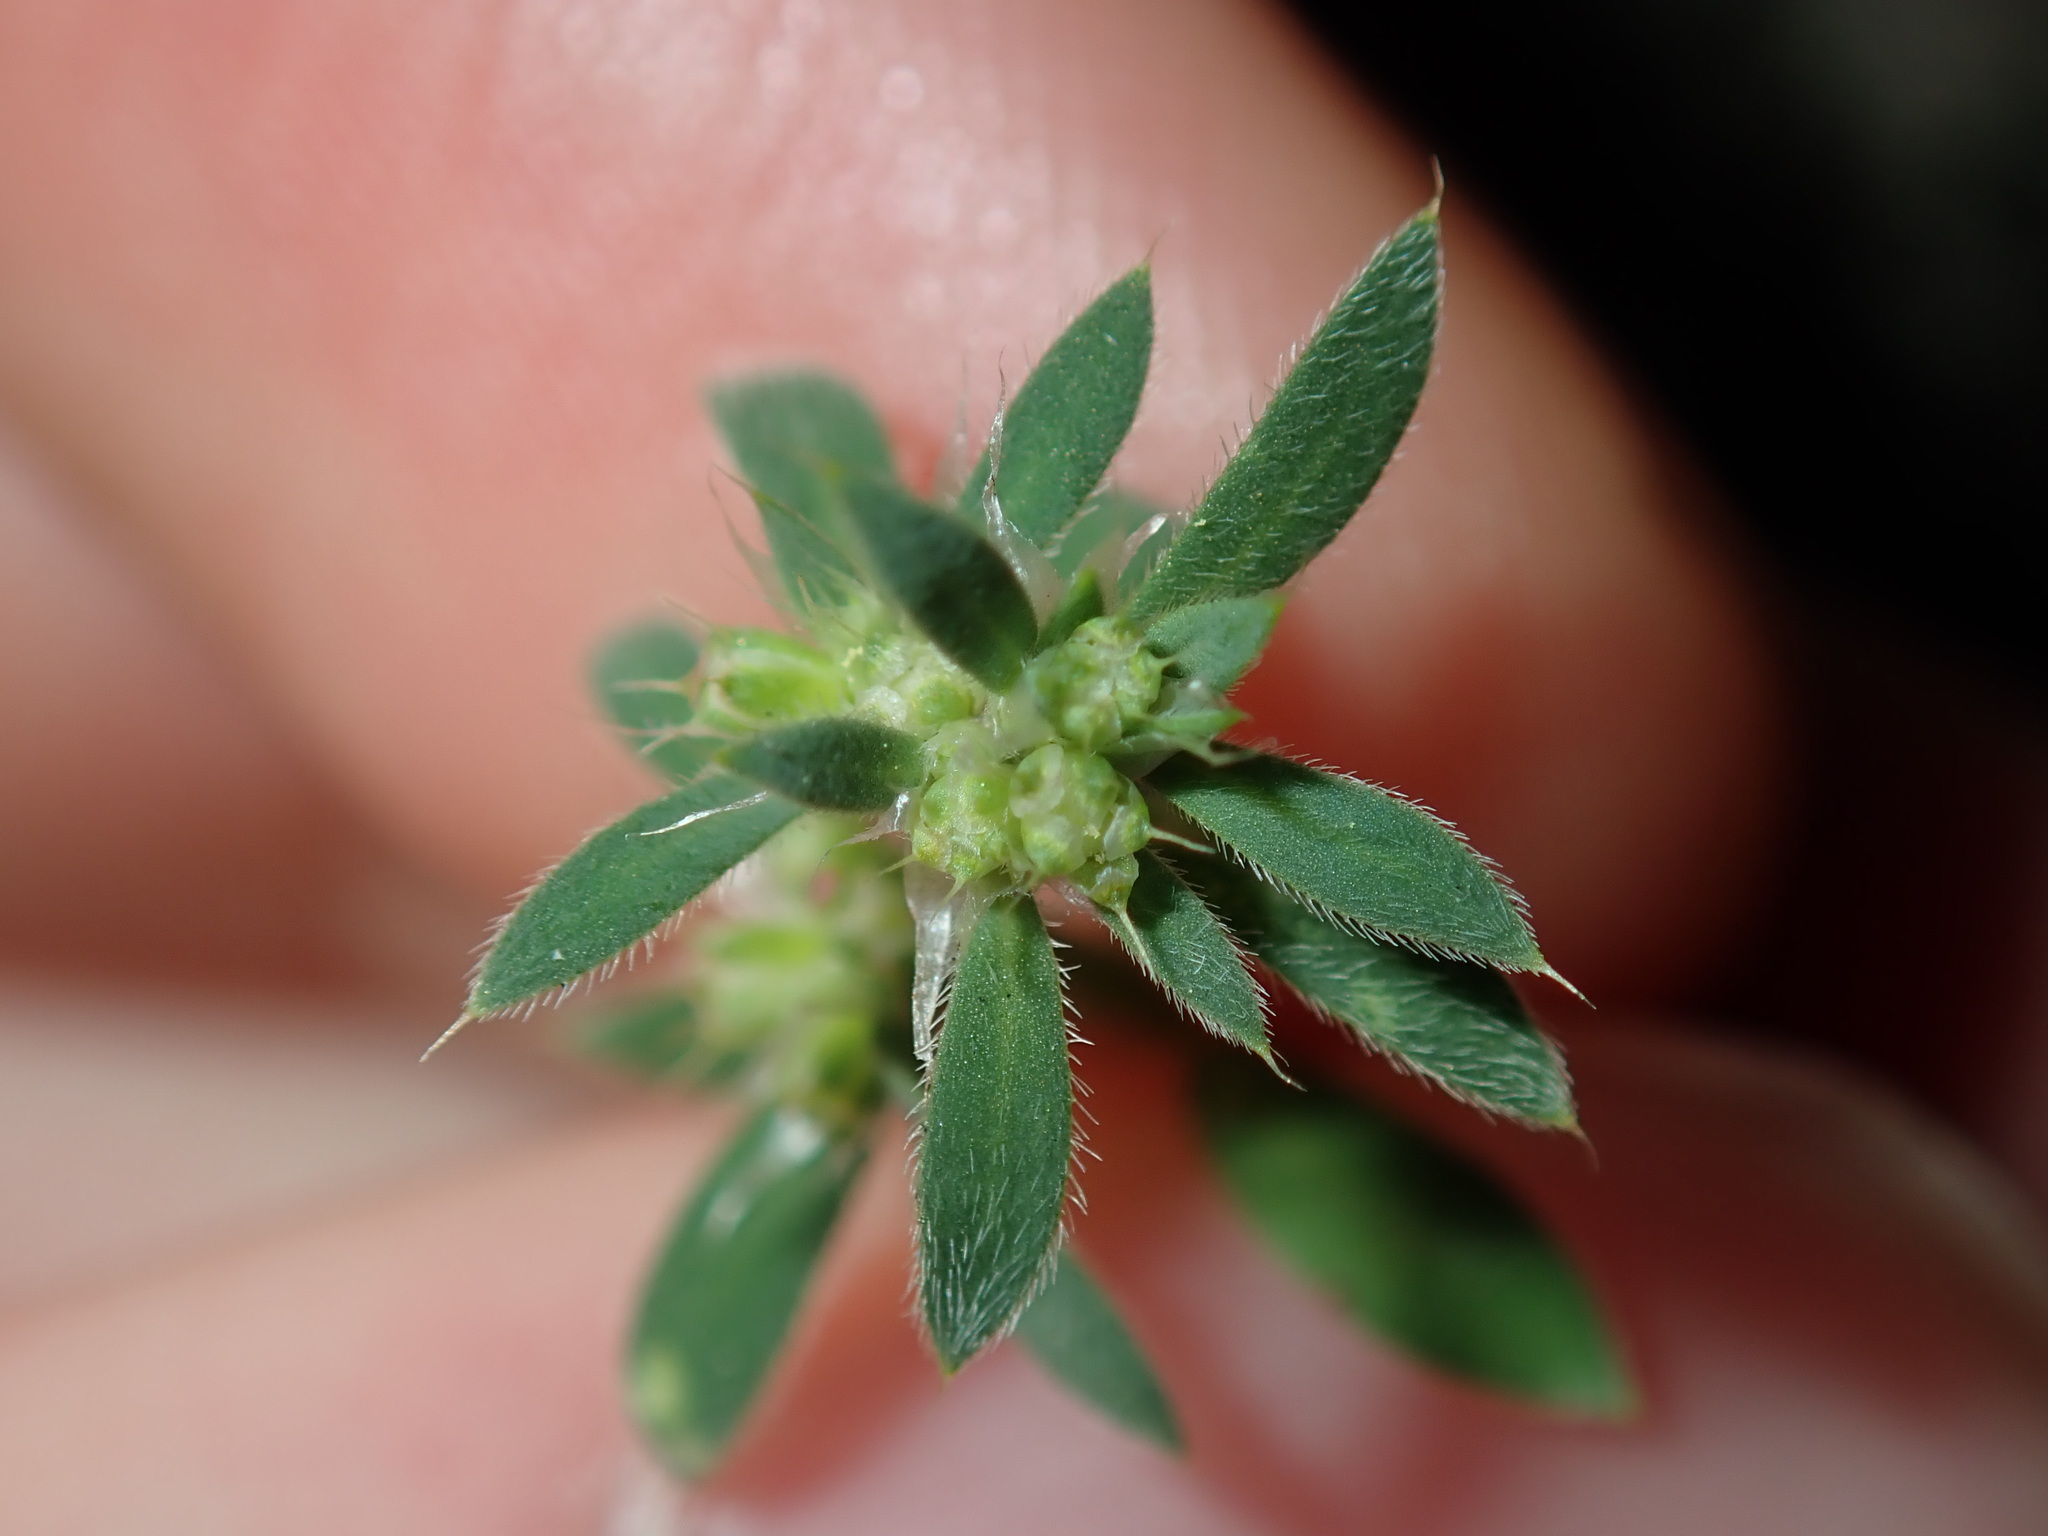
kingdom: Plantae
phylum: Tracheophyta
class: Magnoliopsida
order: Caryophyllales
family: Caryophyllaceae
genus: Paronychia
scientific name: Paronychia brasiliana
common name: Brazilian whitlow
